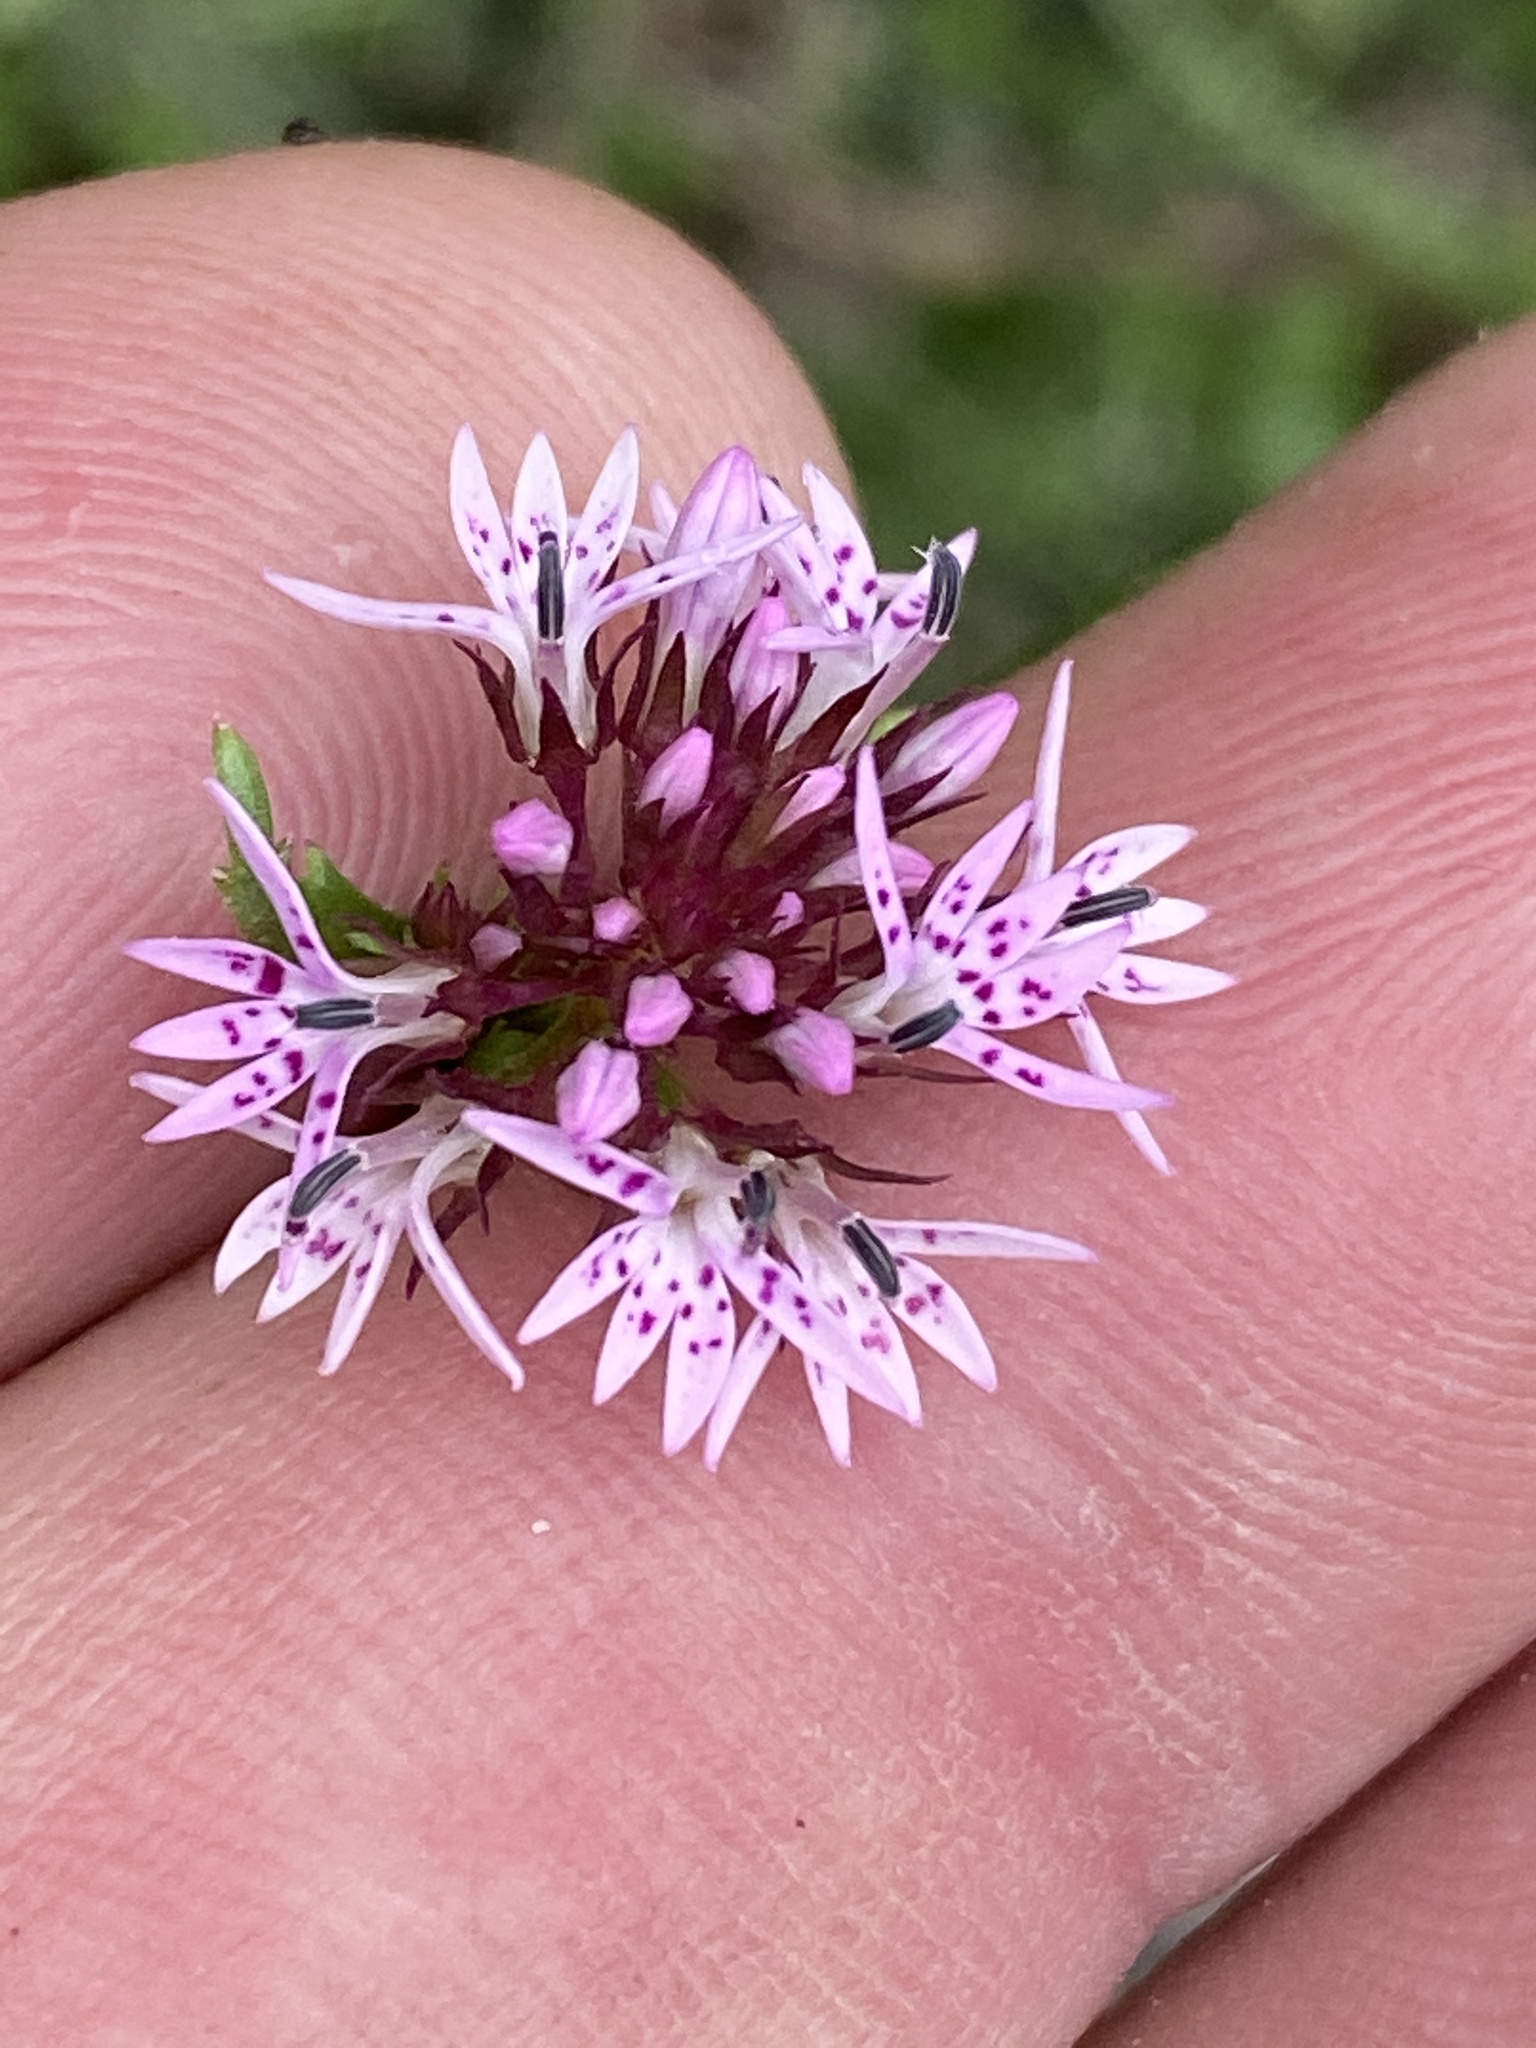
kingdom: Plantae
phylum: Tracheophyta
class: Magnoliopsida
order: Asterales
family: Campanulaceae
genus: Lobelia
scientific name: Lobelia jasionoides
